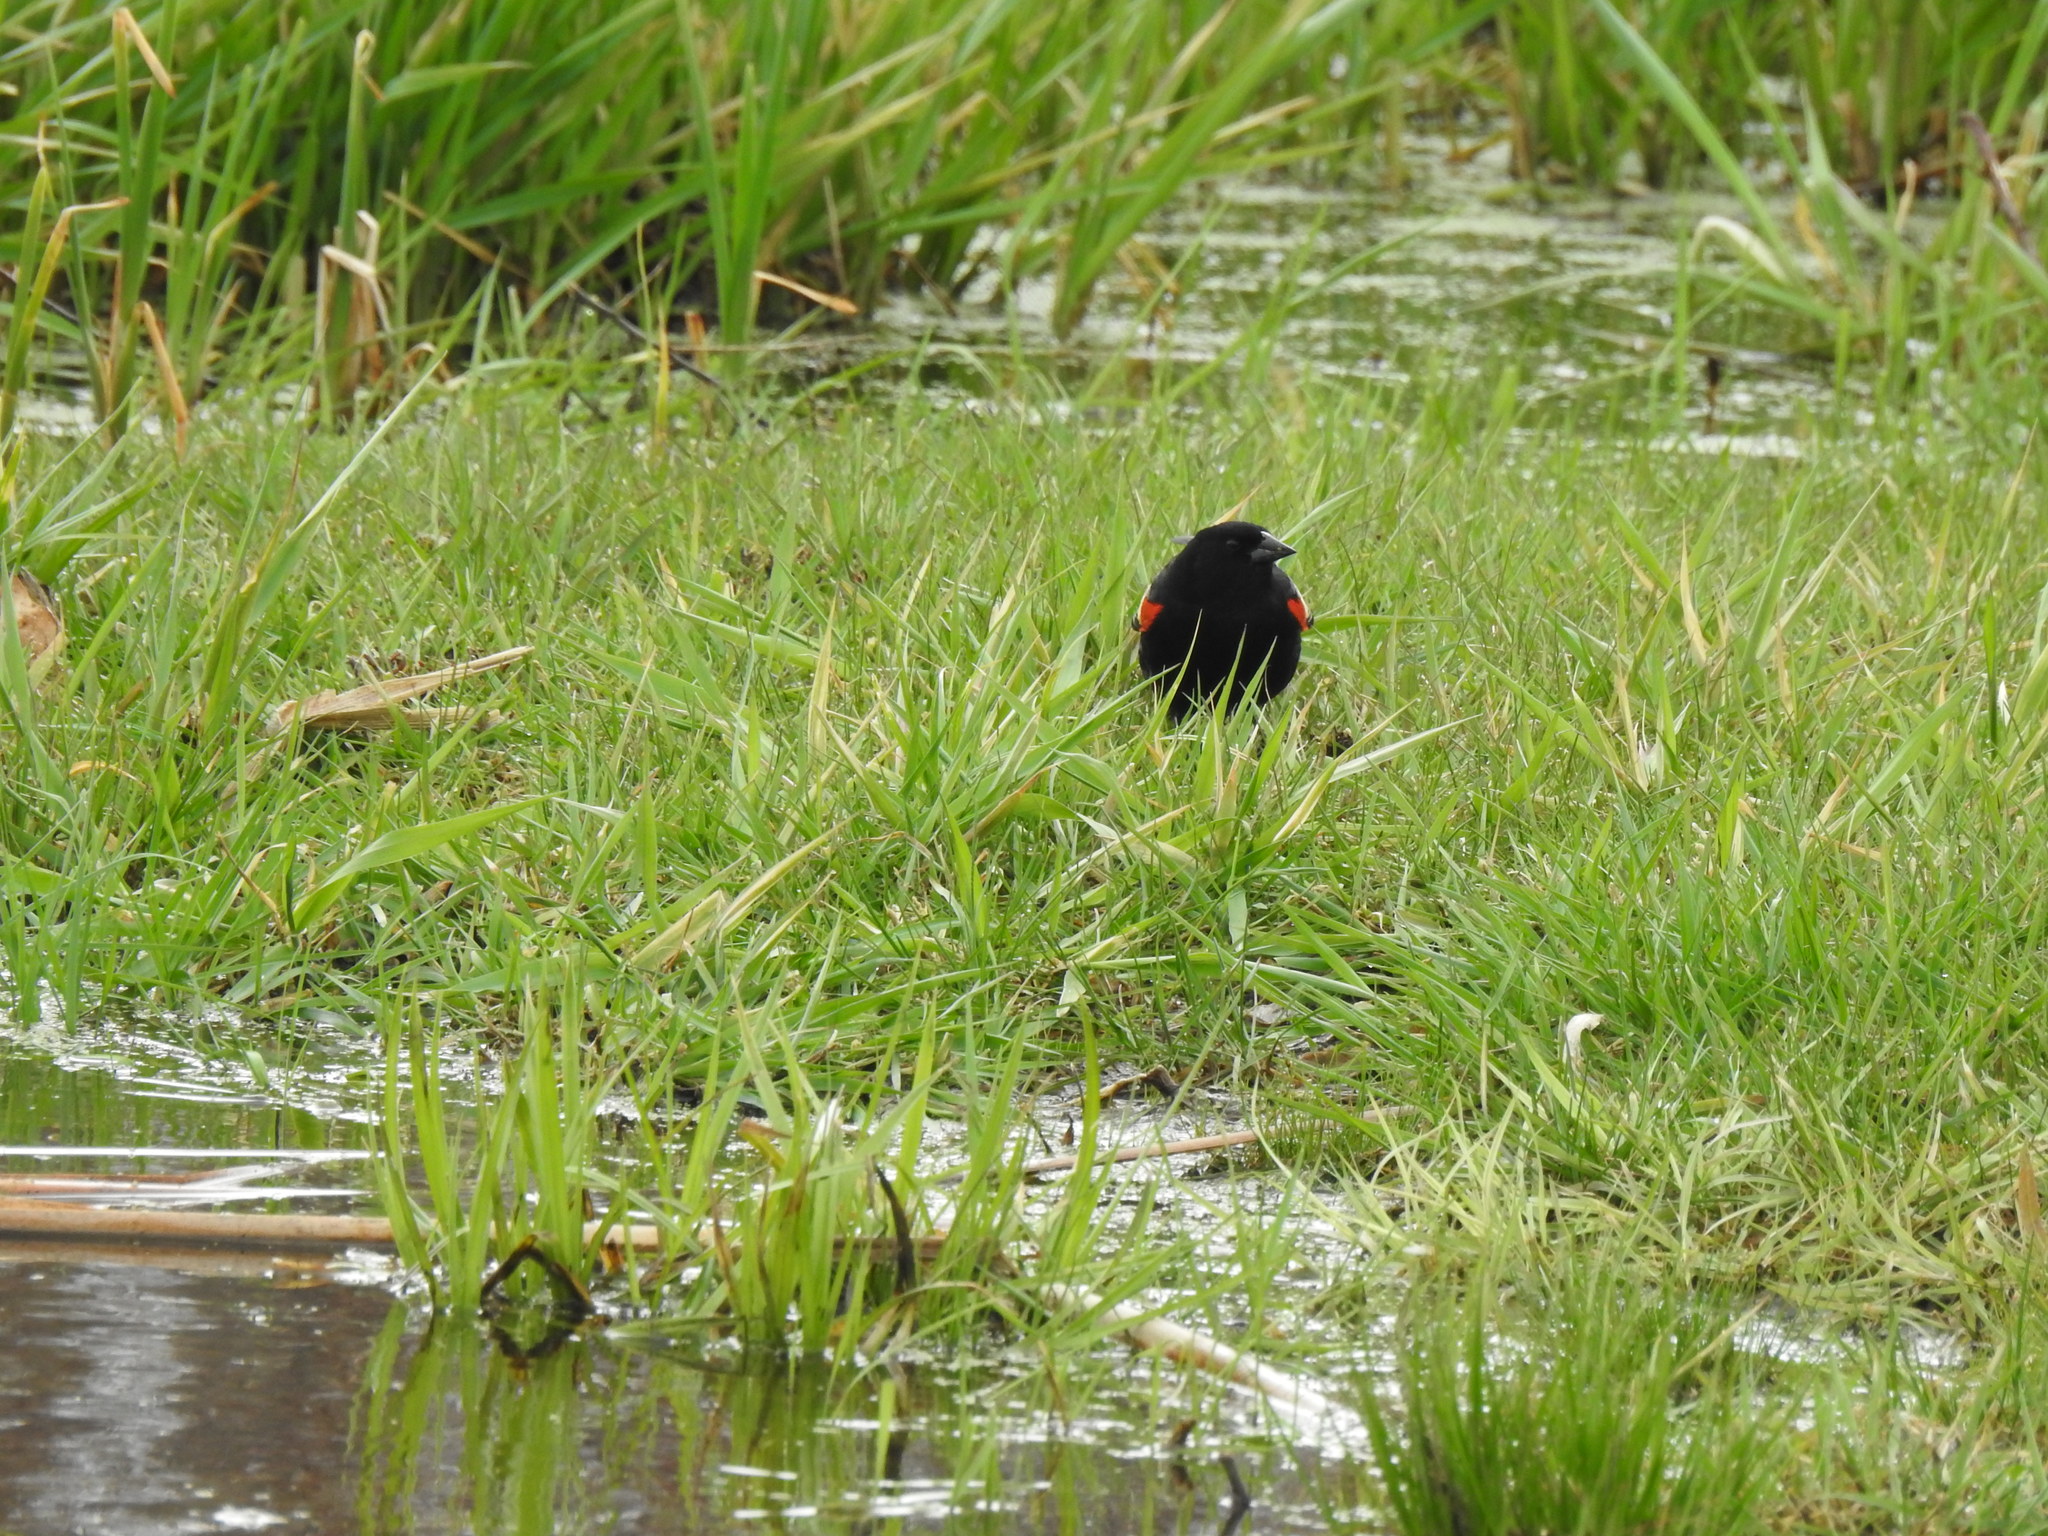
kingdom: Animalia
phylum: Chordata
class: Aves
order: Passeriformes
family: Icteridae
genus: Agelaius
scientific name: Agelaius phoeniceus
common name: Red-winged blackbird
